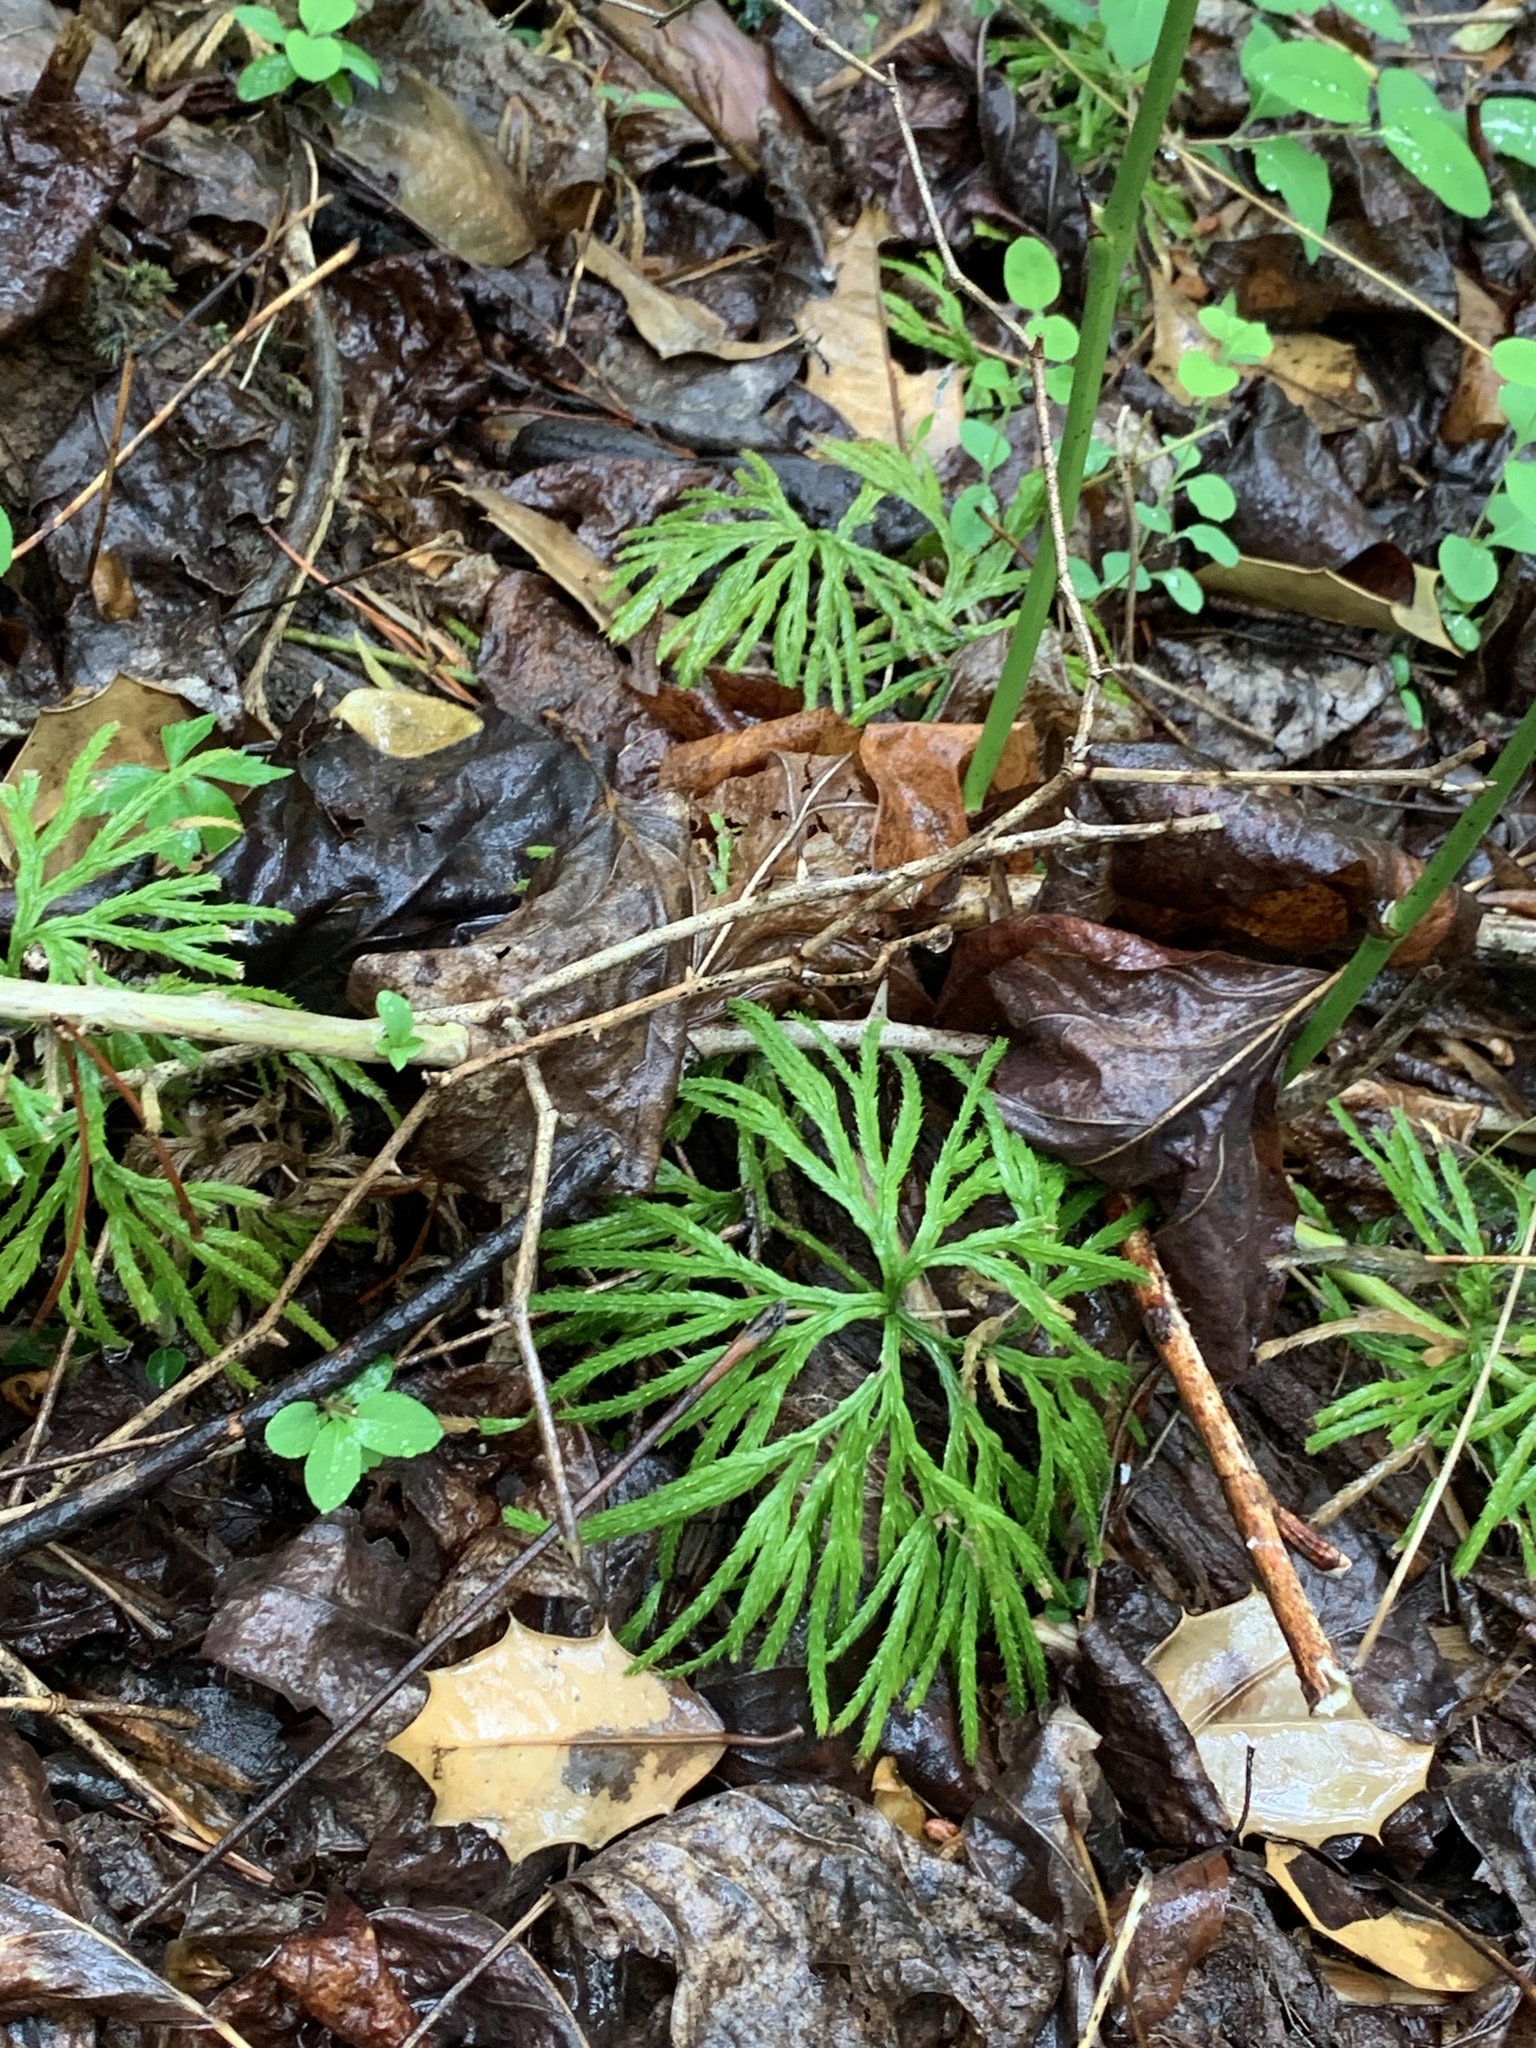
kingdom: Plantae
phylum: Tracheophyta
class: Lycopodiopsida
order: Lycopodiales
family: Lycopodiaceae
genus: Diphasiastrum
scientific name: Diphasiastrum digitatum
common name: Southern running-pine
